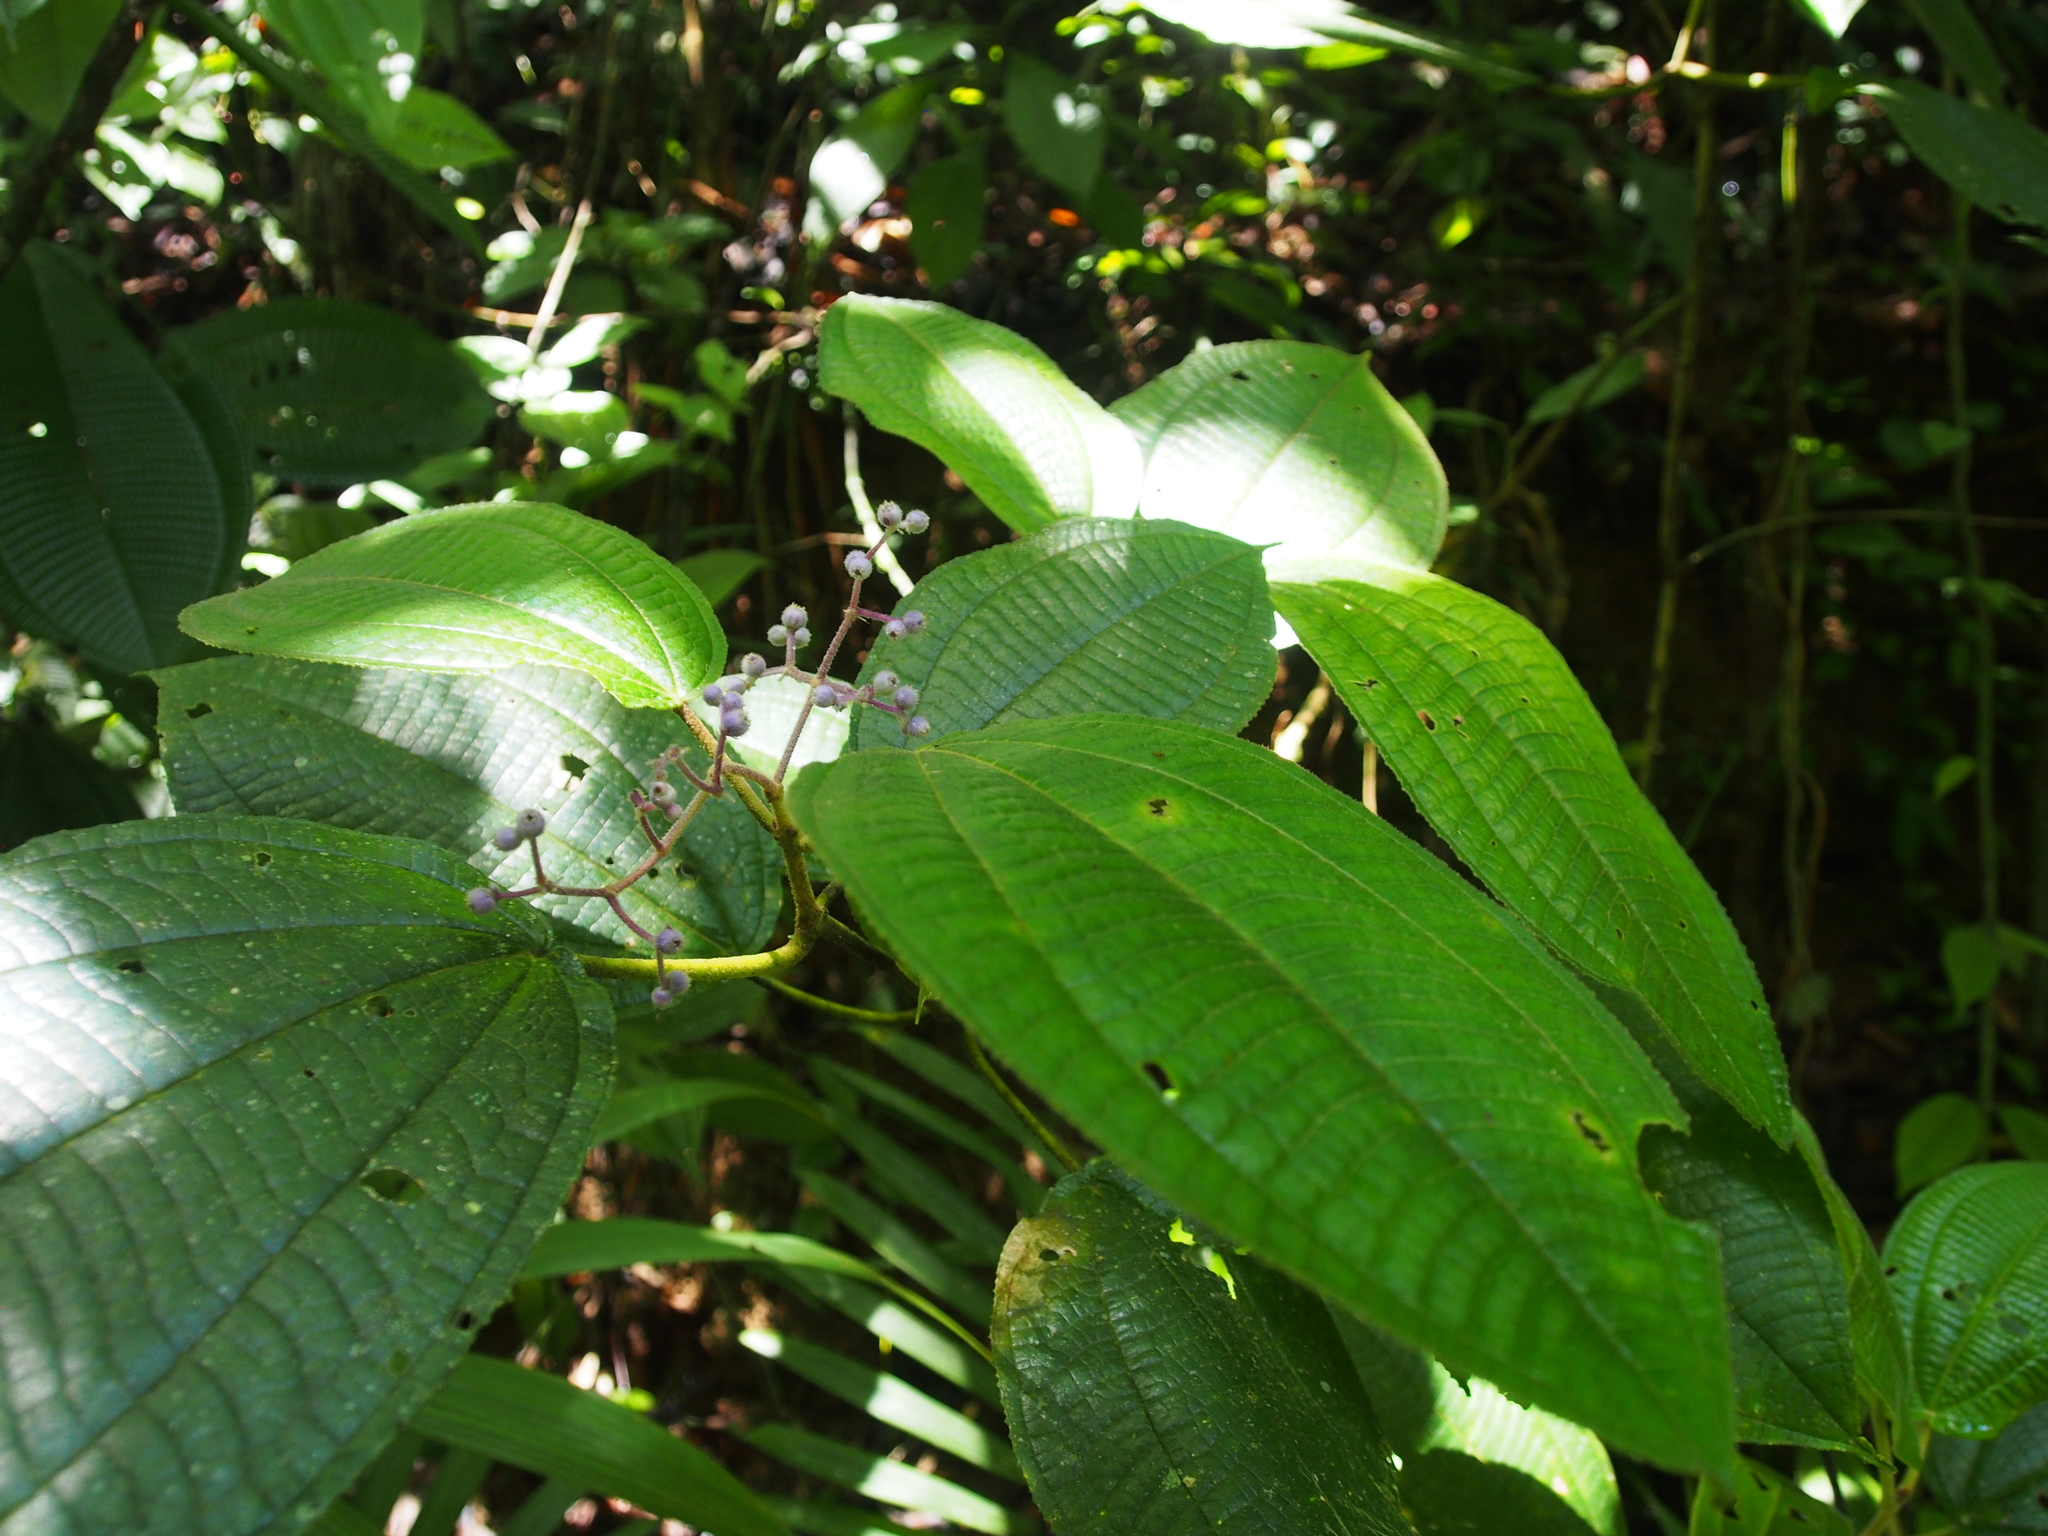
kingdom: Plantae
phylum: Tracheophyta
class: Magnoliopsida
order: Myrtales
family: Melastomataceae
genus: Miconia
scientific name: Miconia dorsiloba
